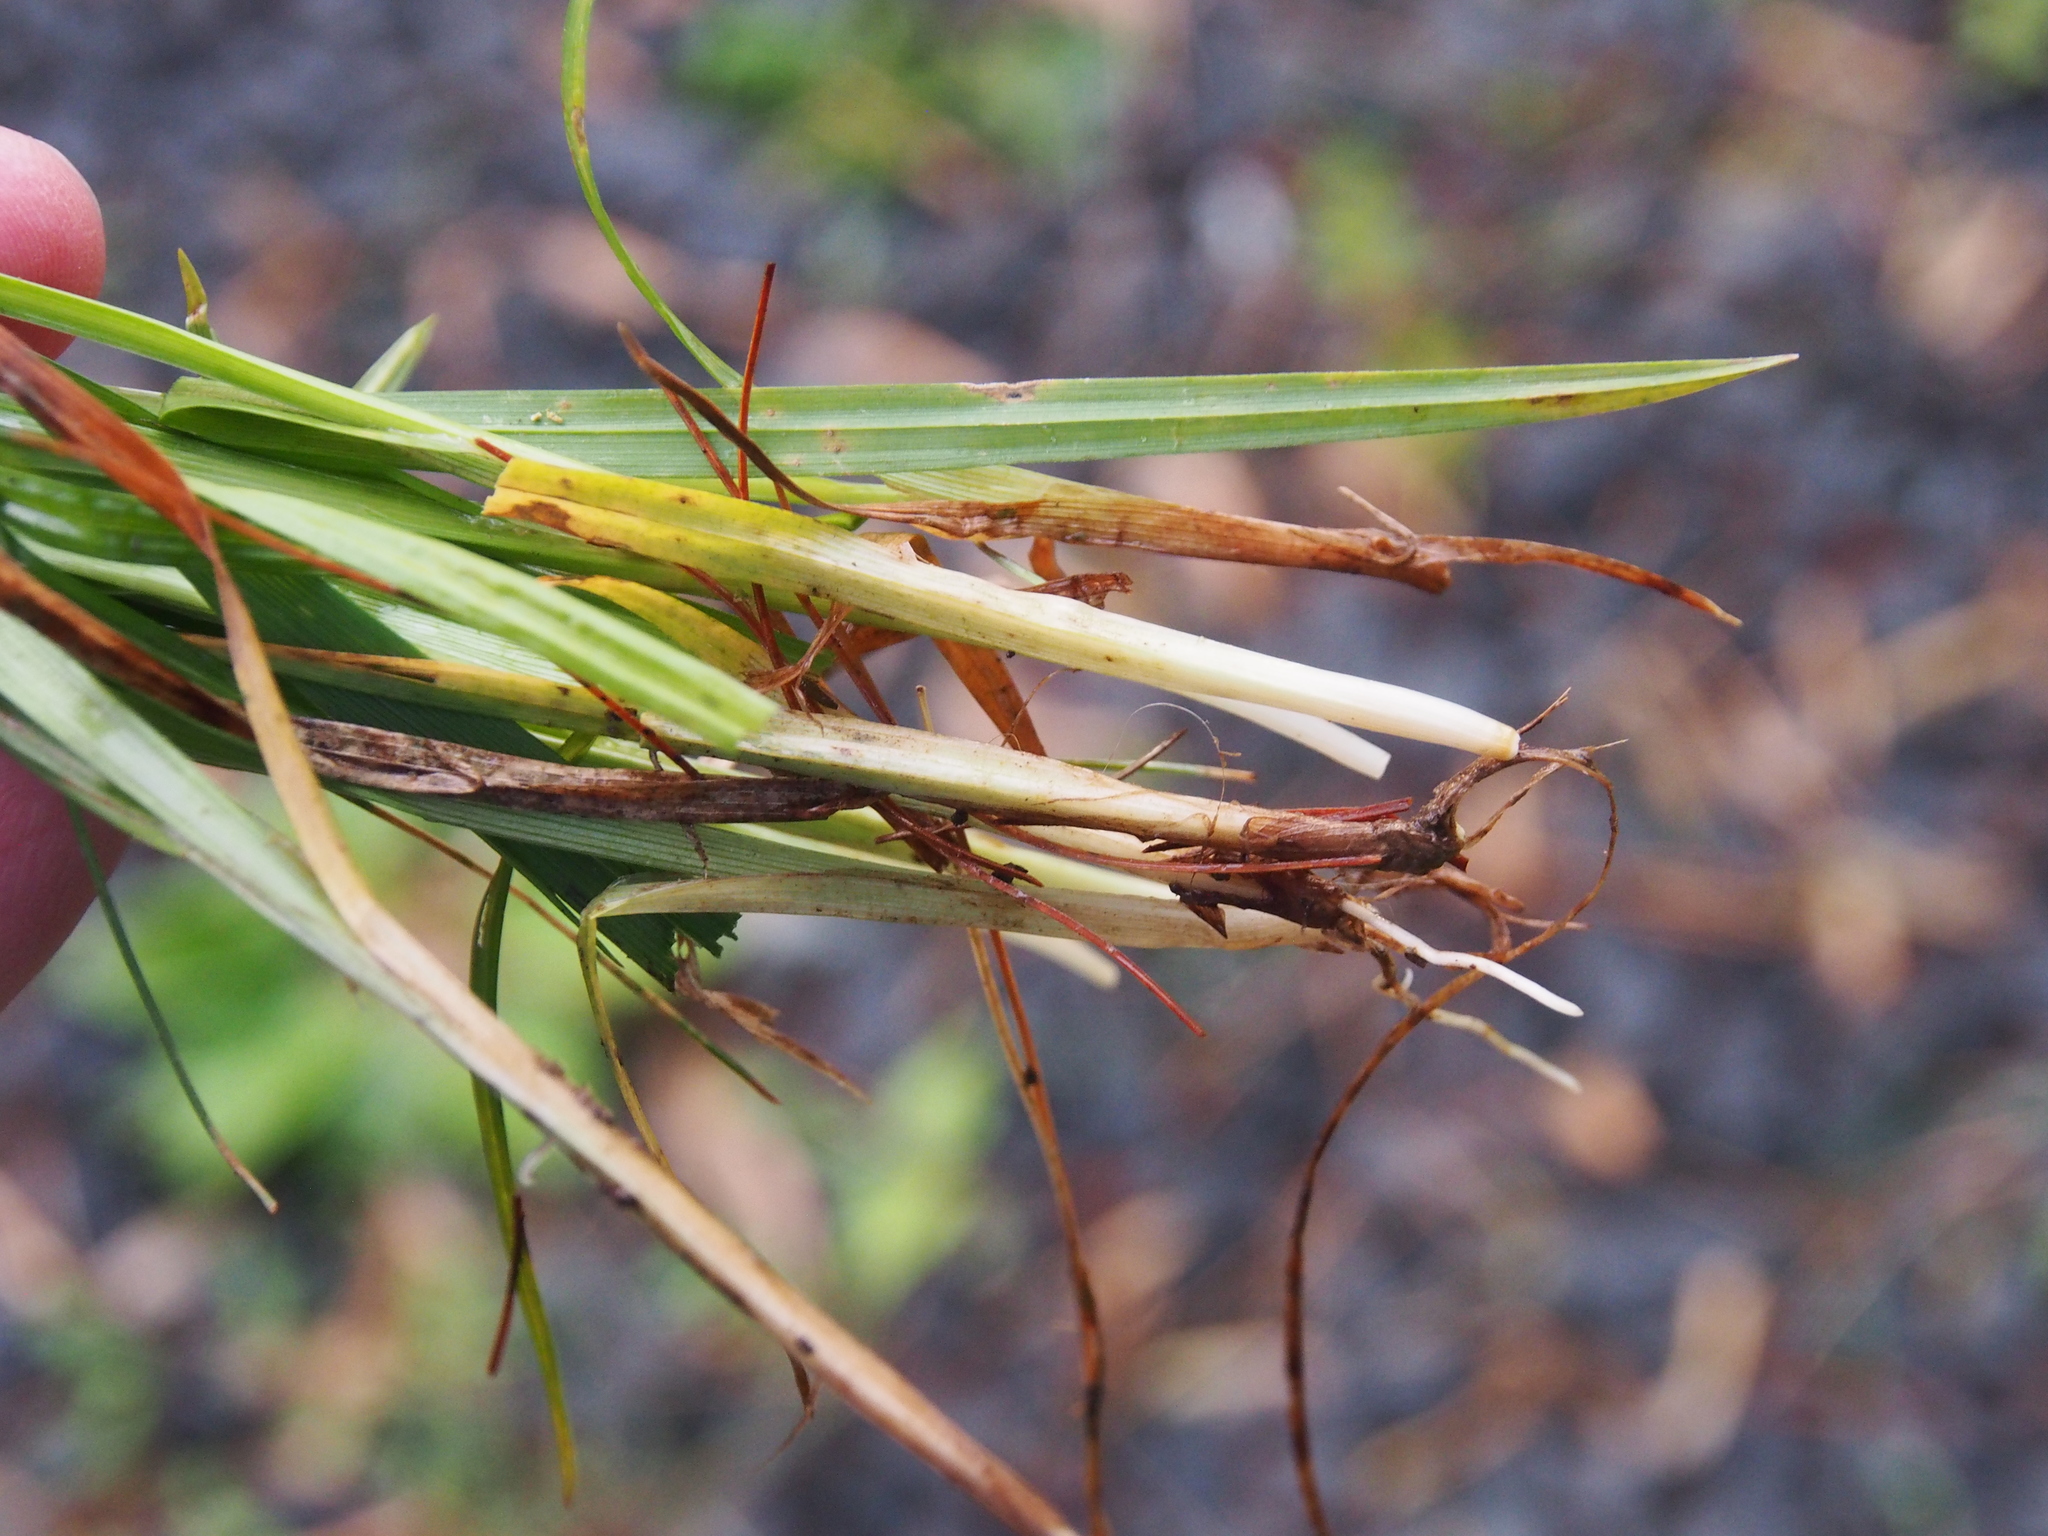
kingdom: Plantae
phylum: Tracheophyta
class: Liliopsida
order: Poales
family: Cyperaceae
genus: Carex
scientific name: Carex blanda
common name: Bland sedge
